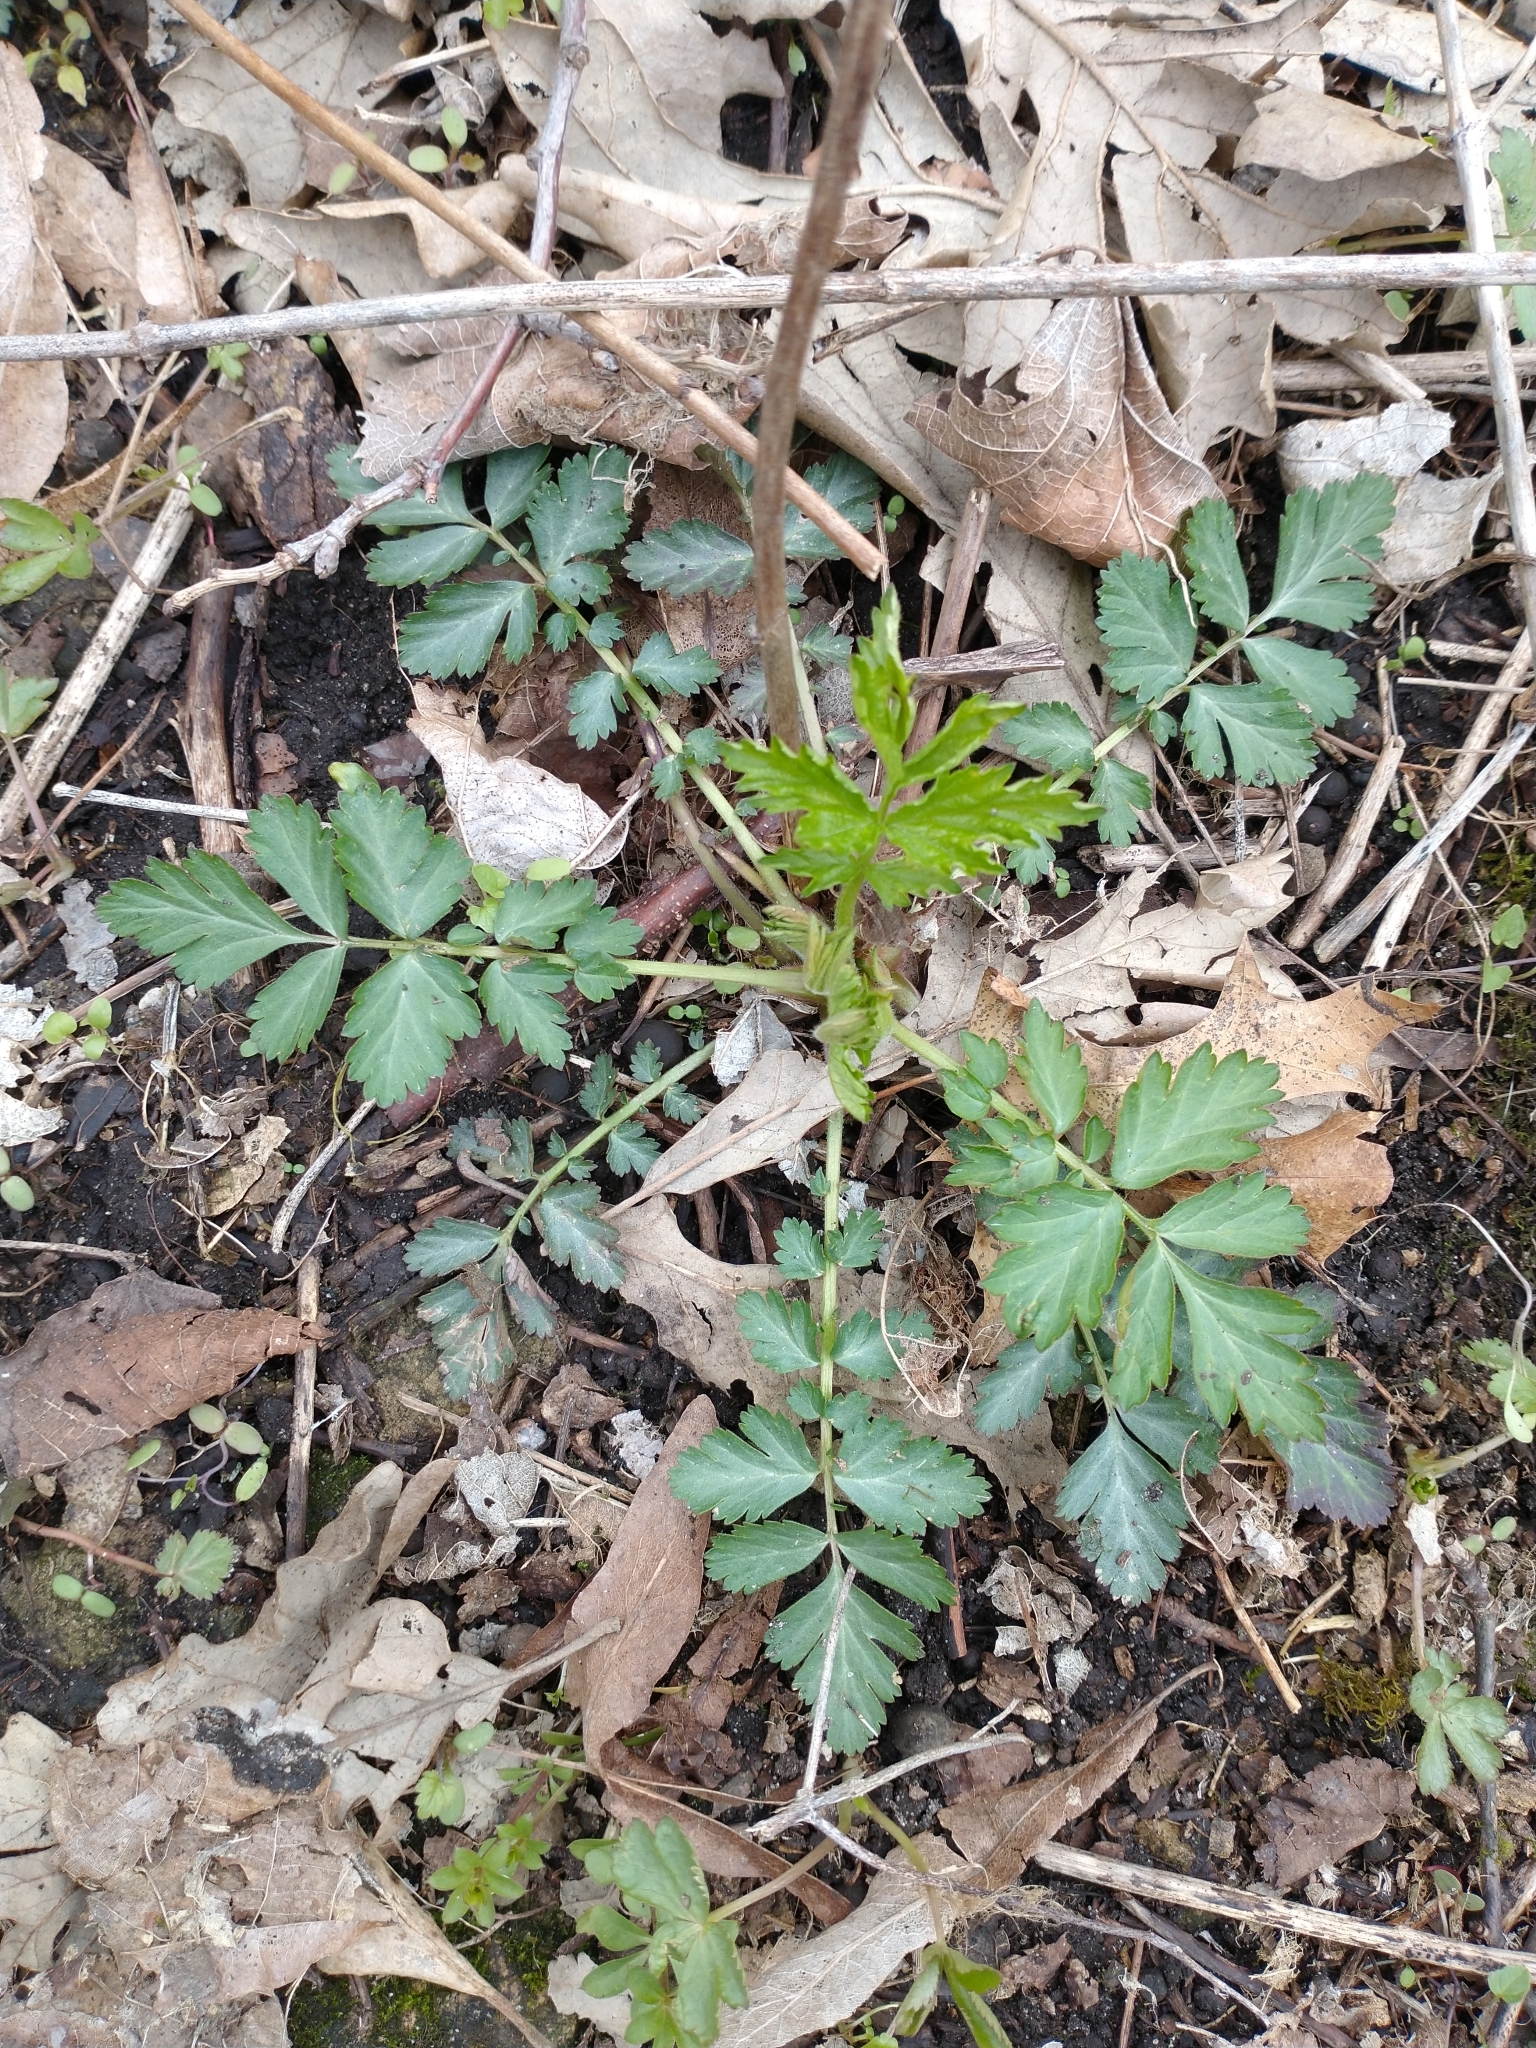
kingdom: Plantae
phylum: Tracheophyta
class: Magnoliopsida
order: Rosales
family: Rosaceae
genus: Geum
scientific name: Geum canadense
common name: White avens
